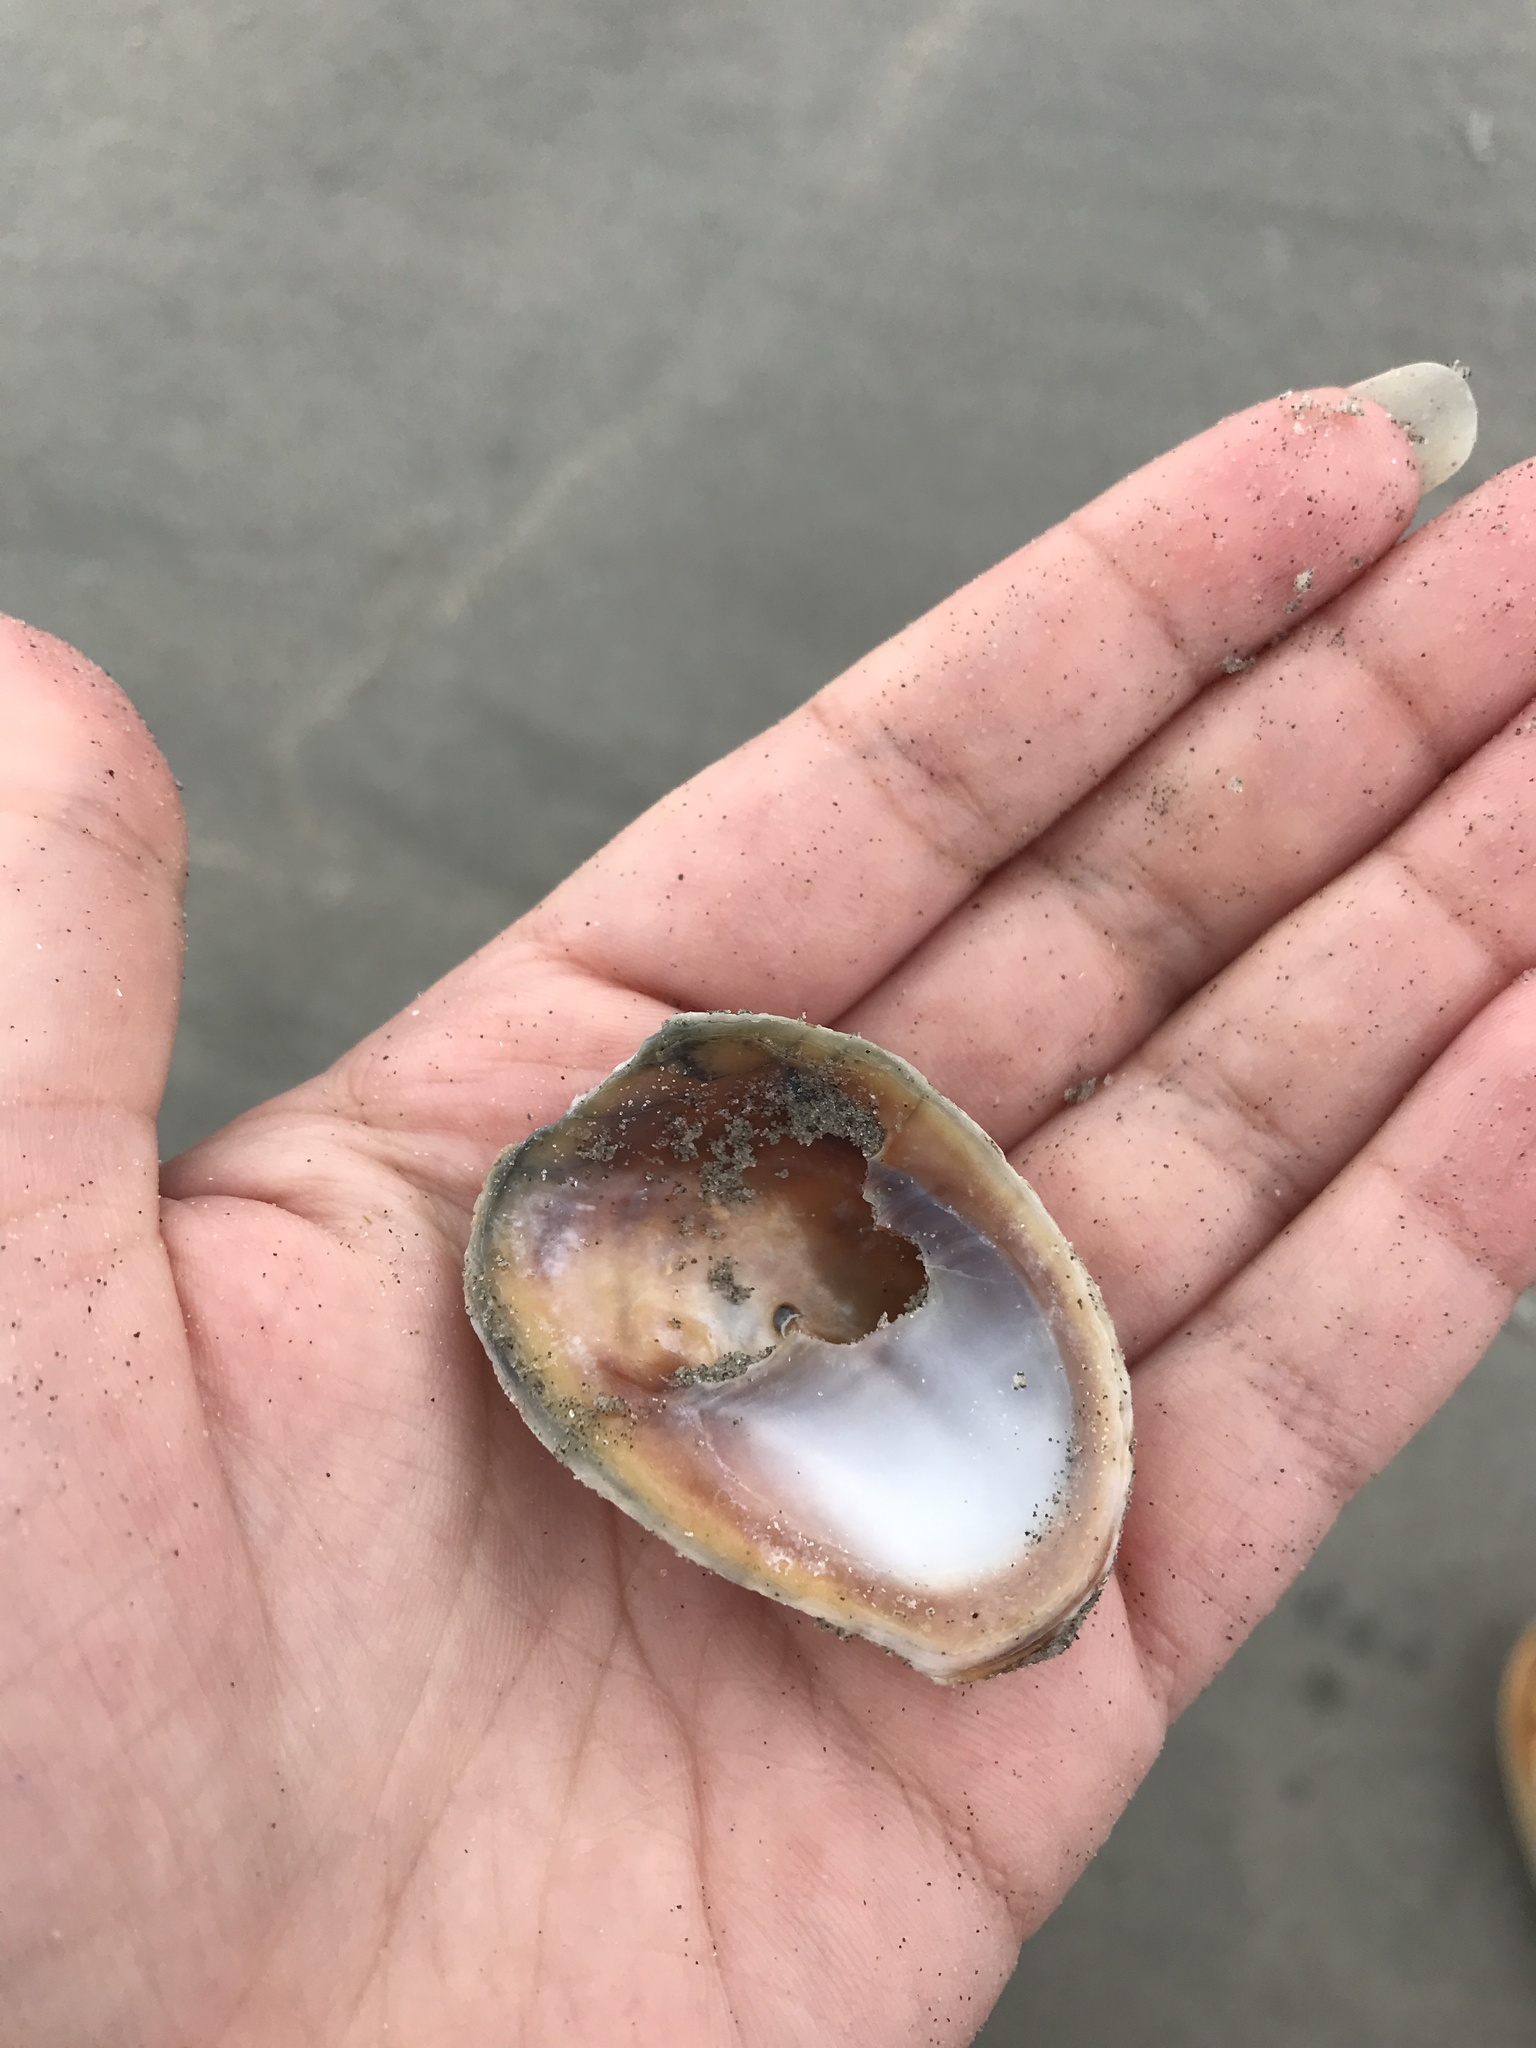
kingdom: Animalia
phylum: Mollusca
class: Gastropoda
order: Littorinimorpha
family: Calyptraeidae
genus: Crepidula
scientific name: Crepidula fornicata
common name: Slipper limpet
